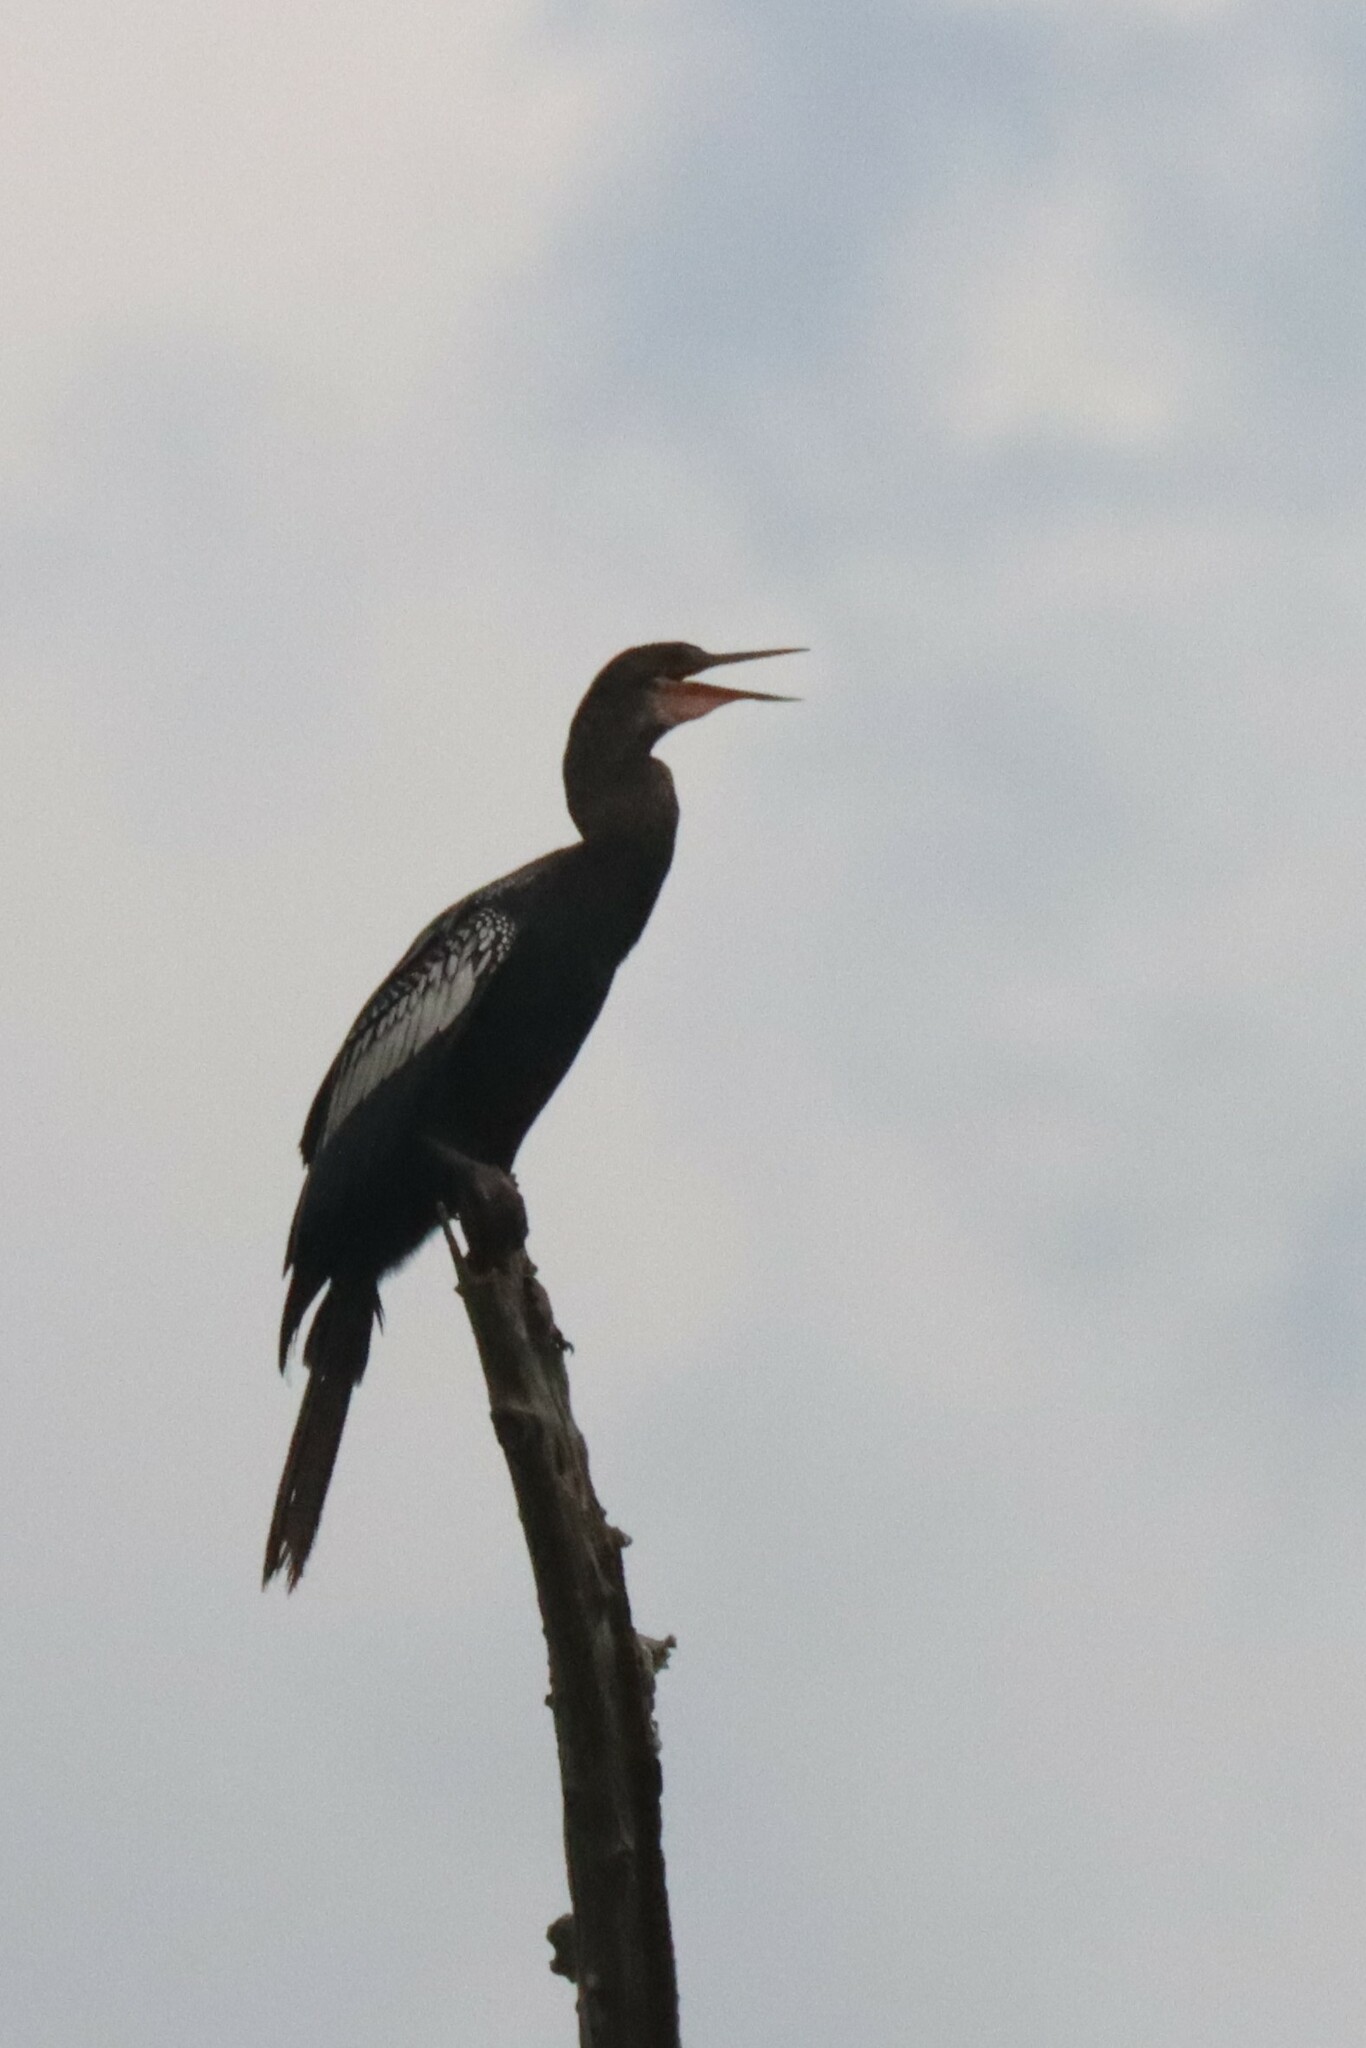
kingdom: Animalia
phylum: Chordata
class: Aves
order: Suliformes
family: Anhingidae
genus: Anhinga
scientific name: Anhinga anhinga
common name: Anhinga
